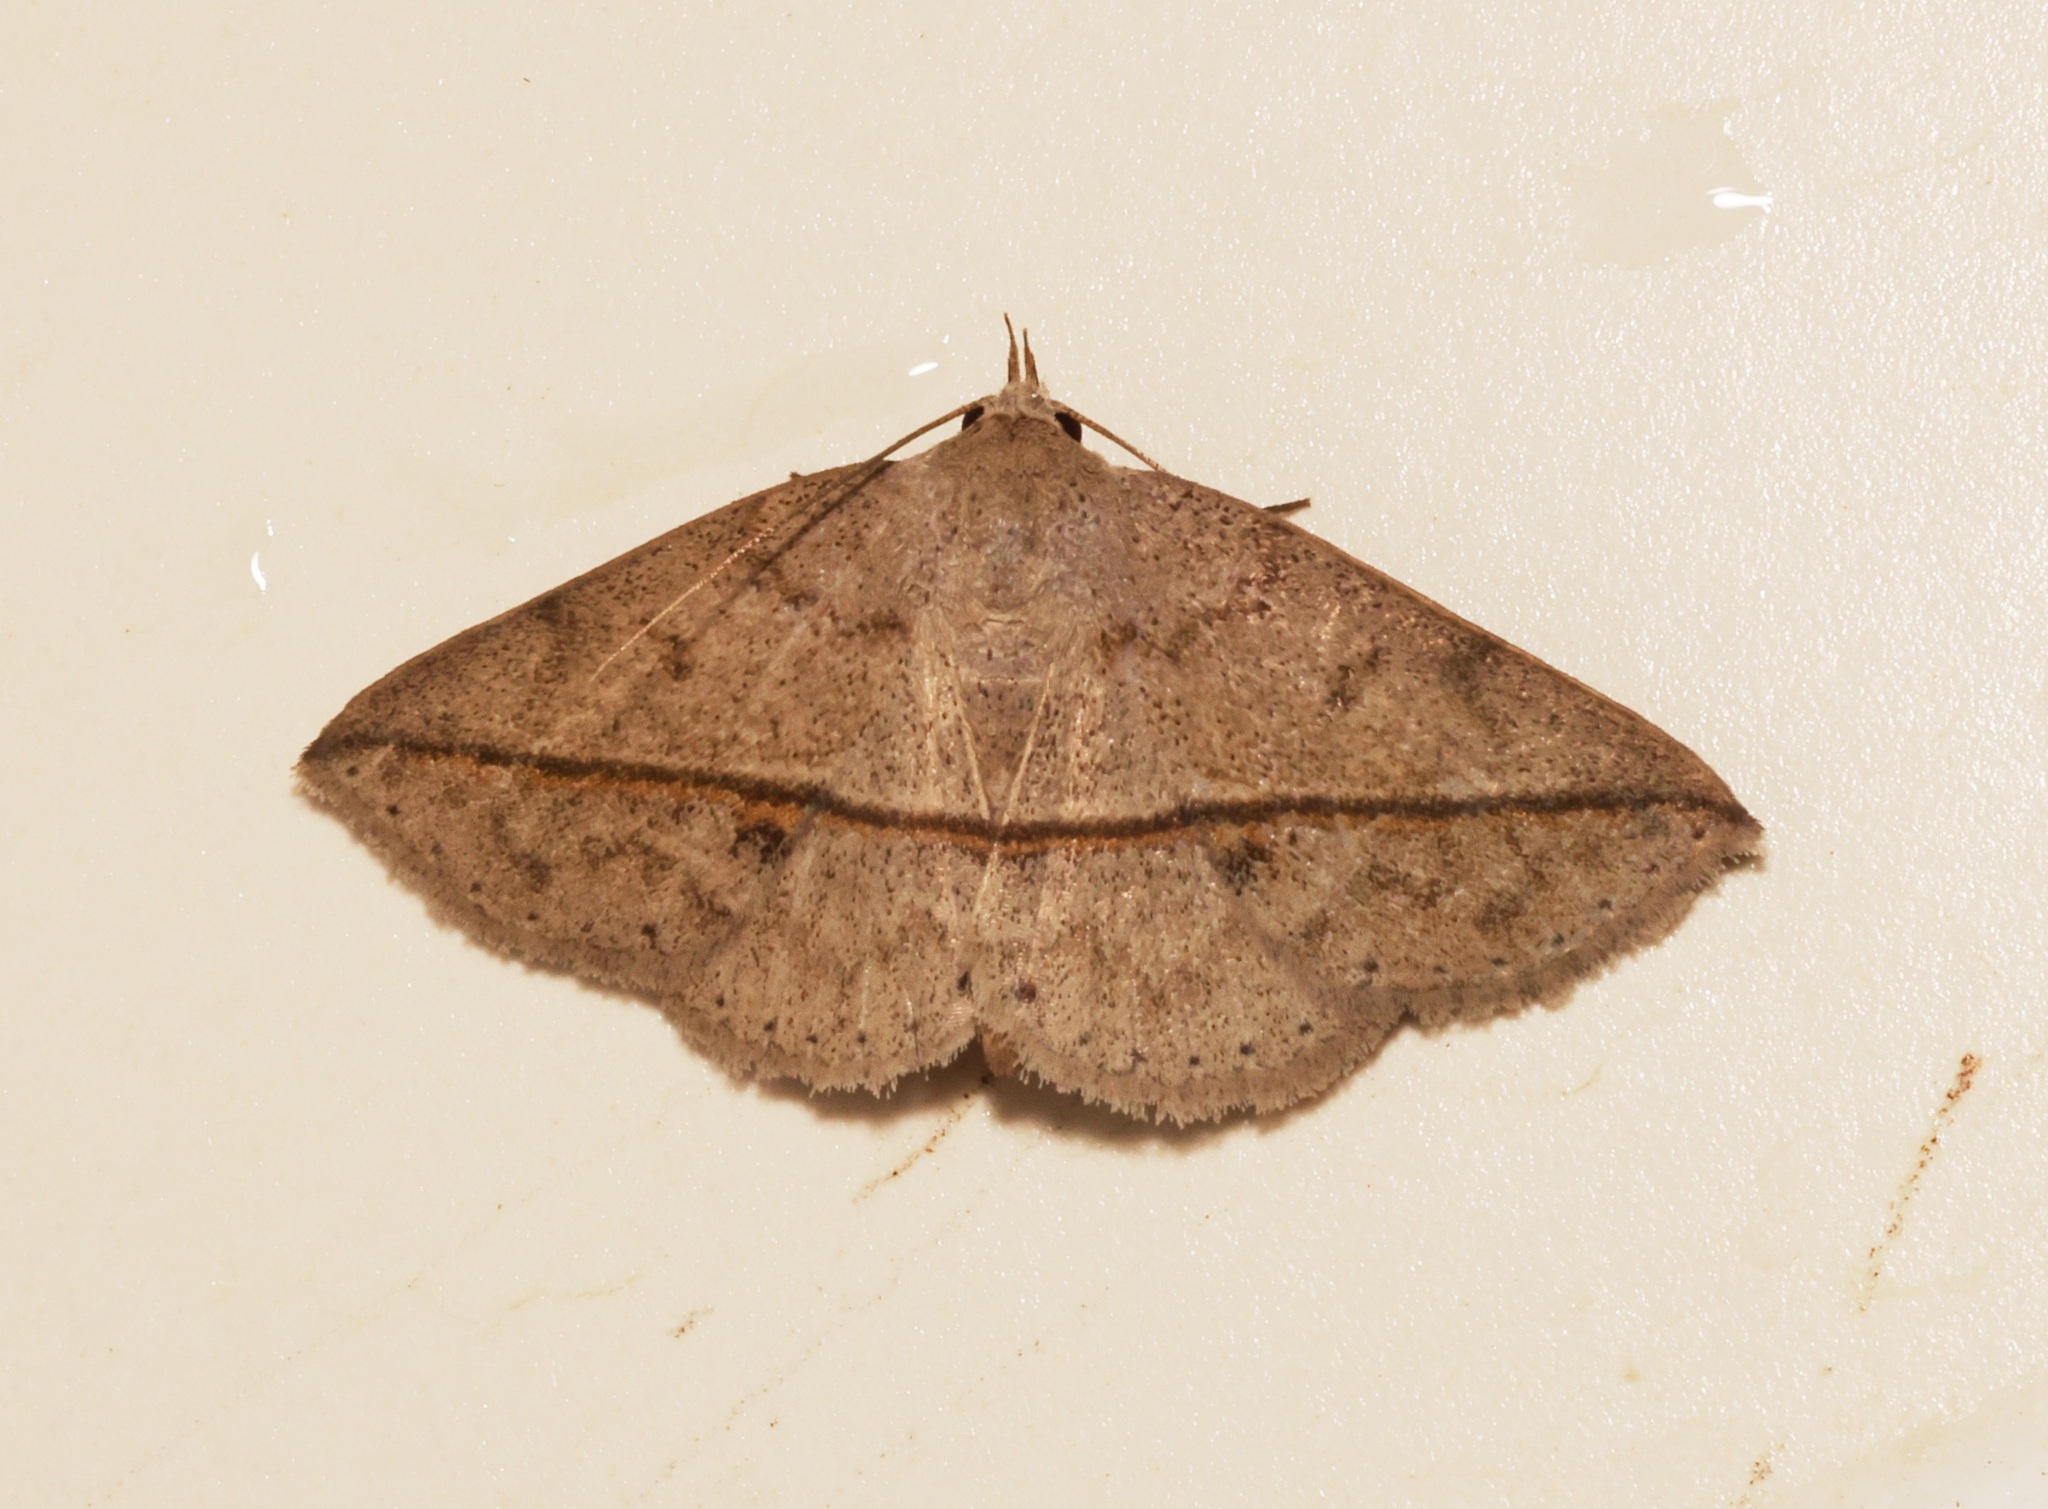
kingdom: Animalia
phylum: Arthropoda
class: Insecta
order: Lepidoptera
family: Erebidae
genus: Ugia
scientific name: Ugia
